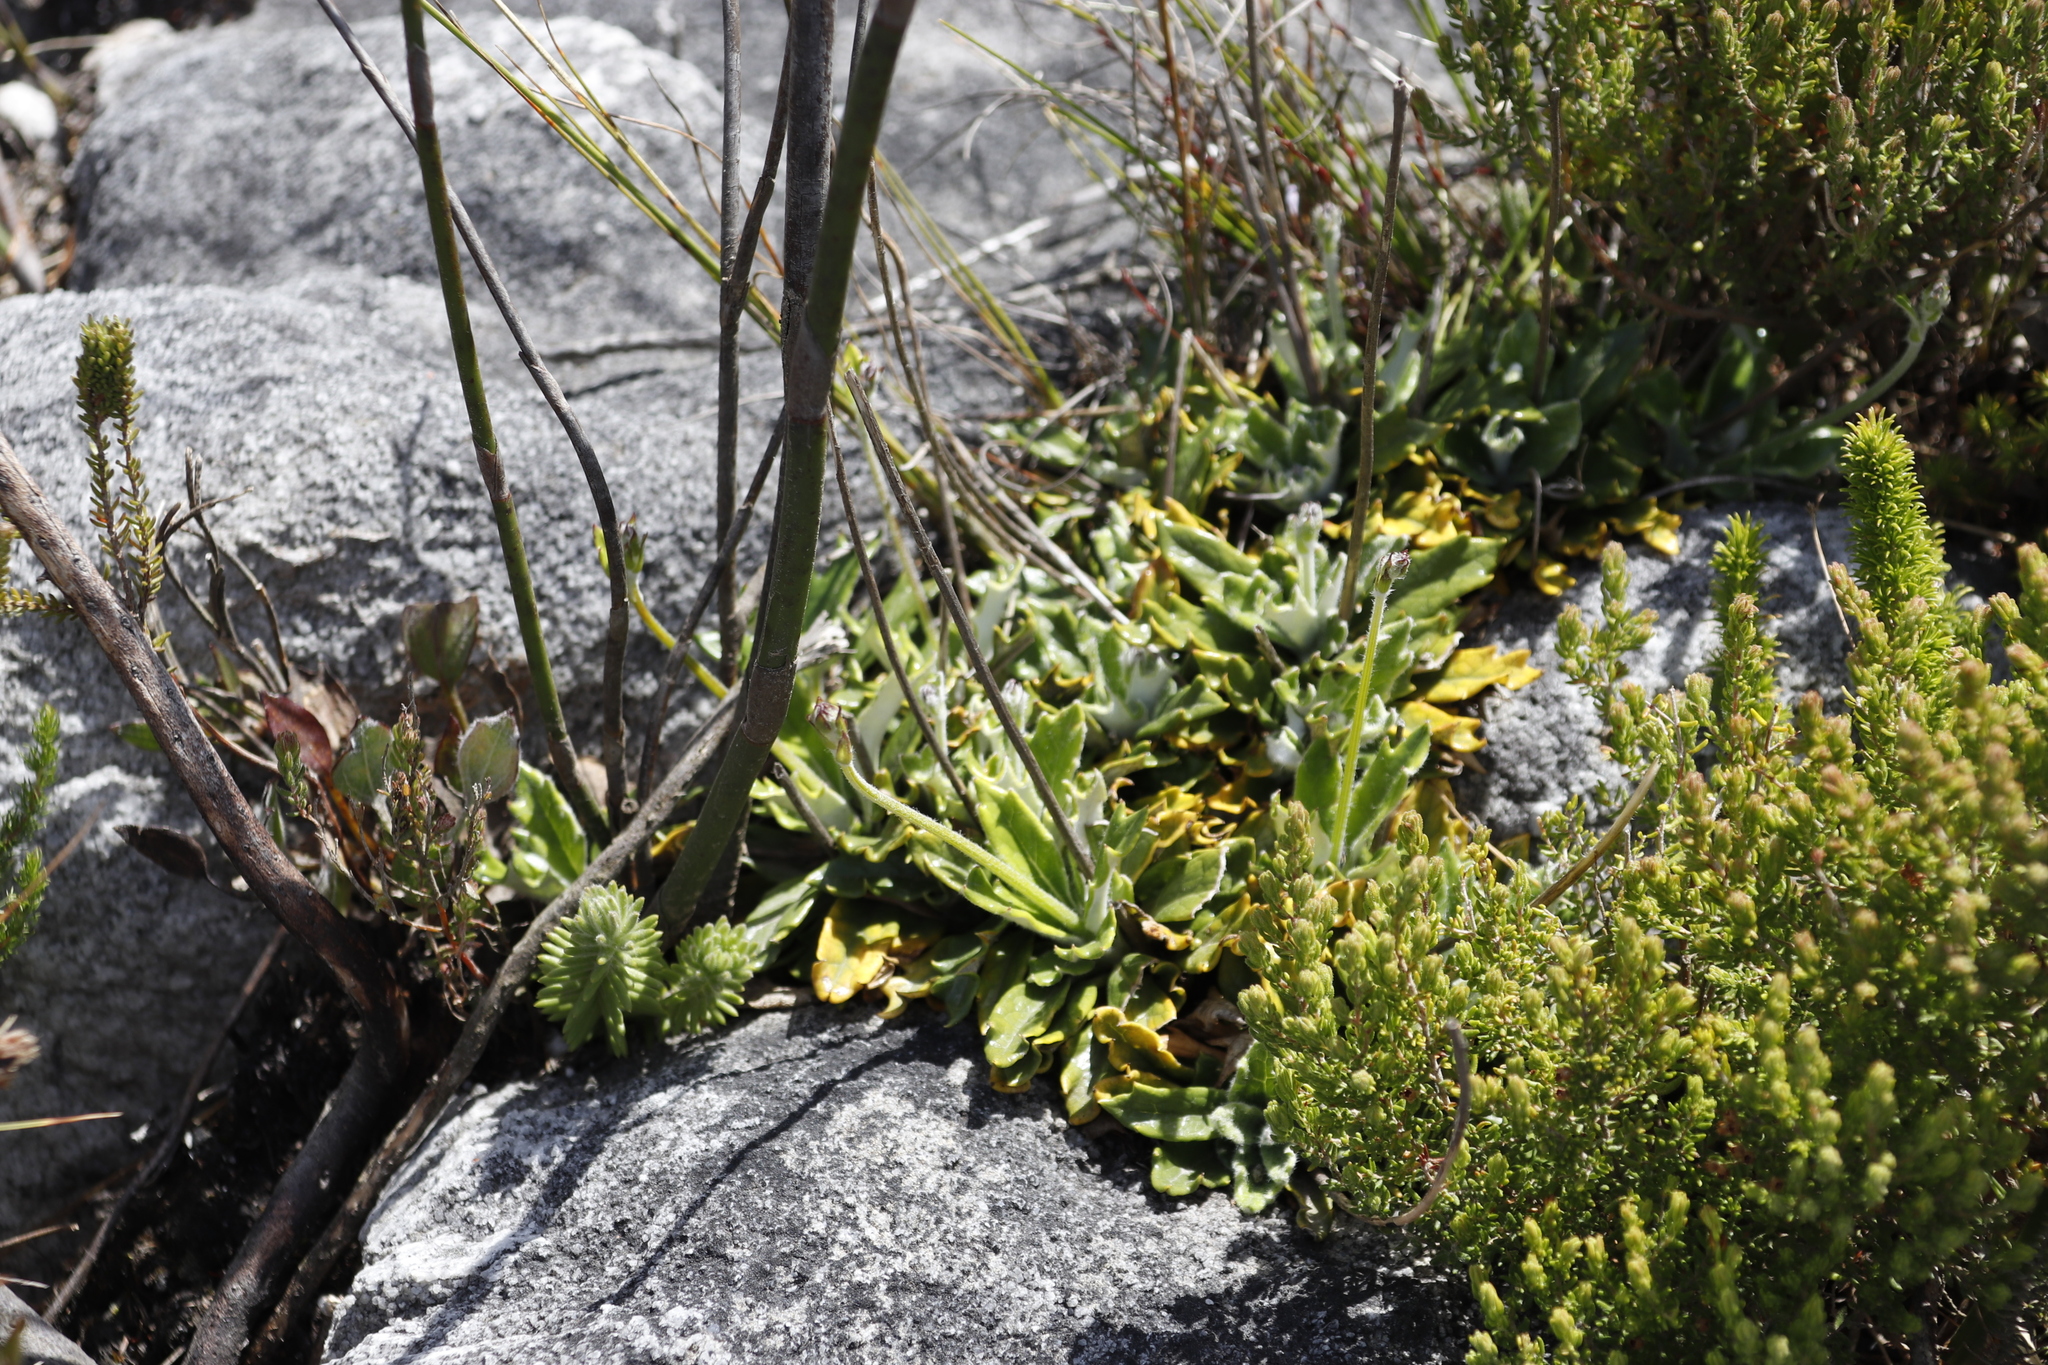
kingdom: Plantae
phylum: Tracheophyta
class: Magnoliopsida
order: Apiales
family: Apiaceae
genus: Hermas
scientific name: Hermas quinquedentata
